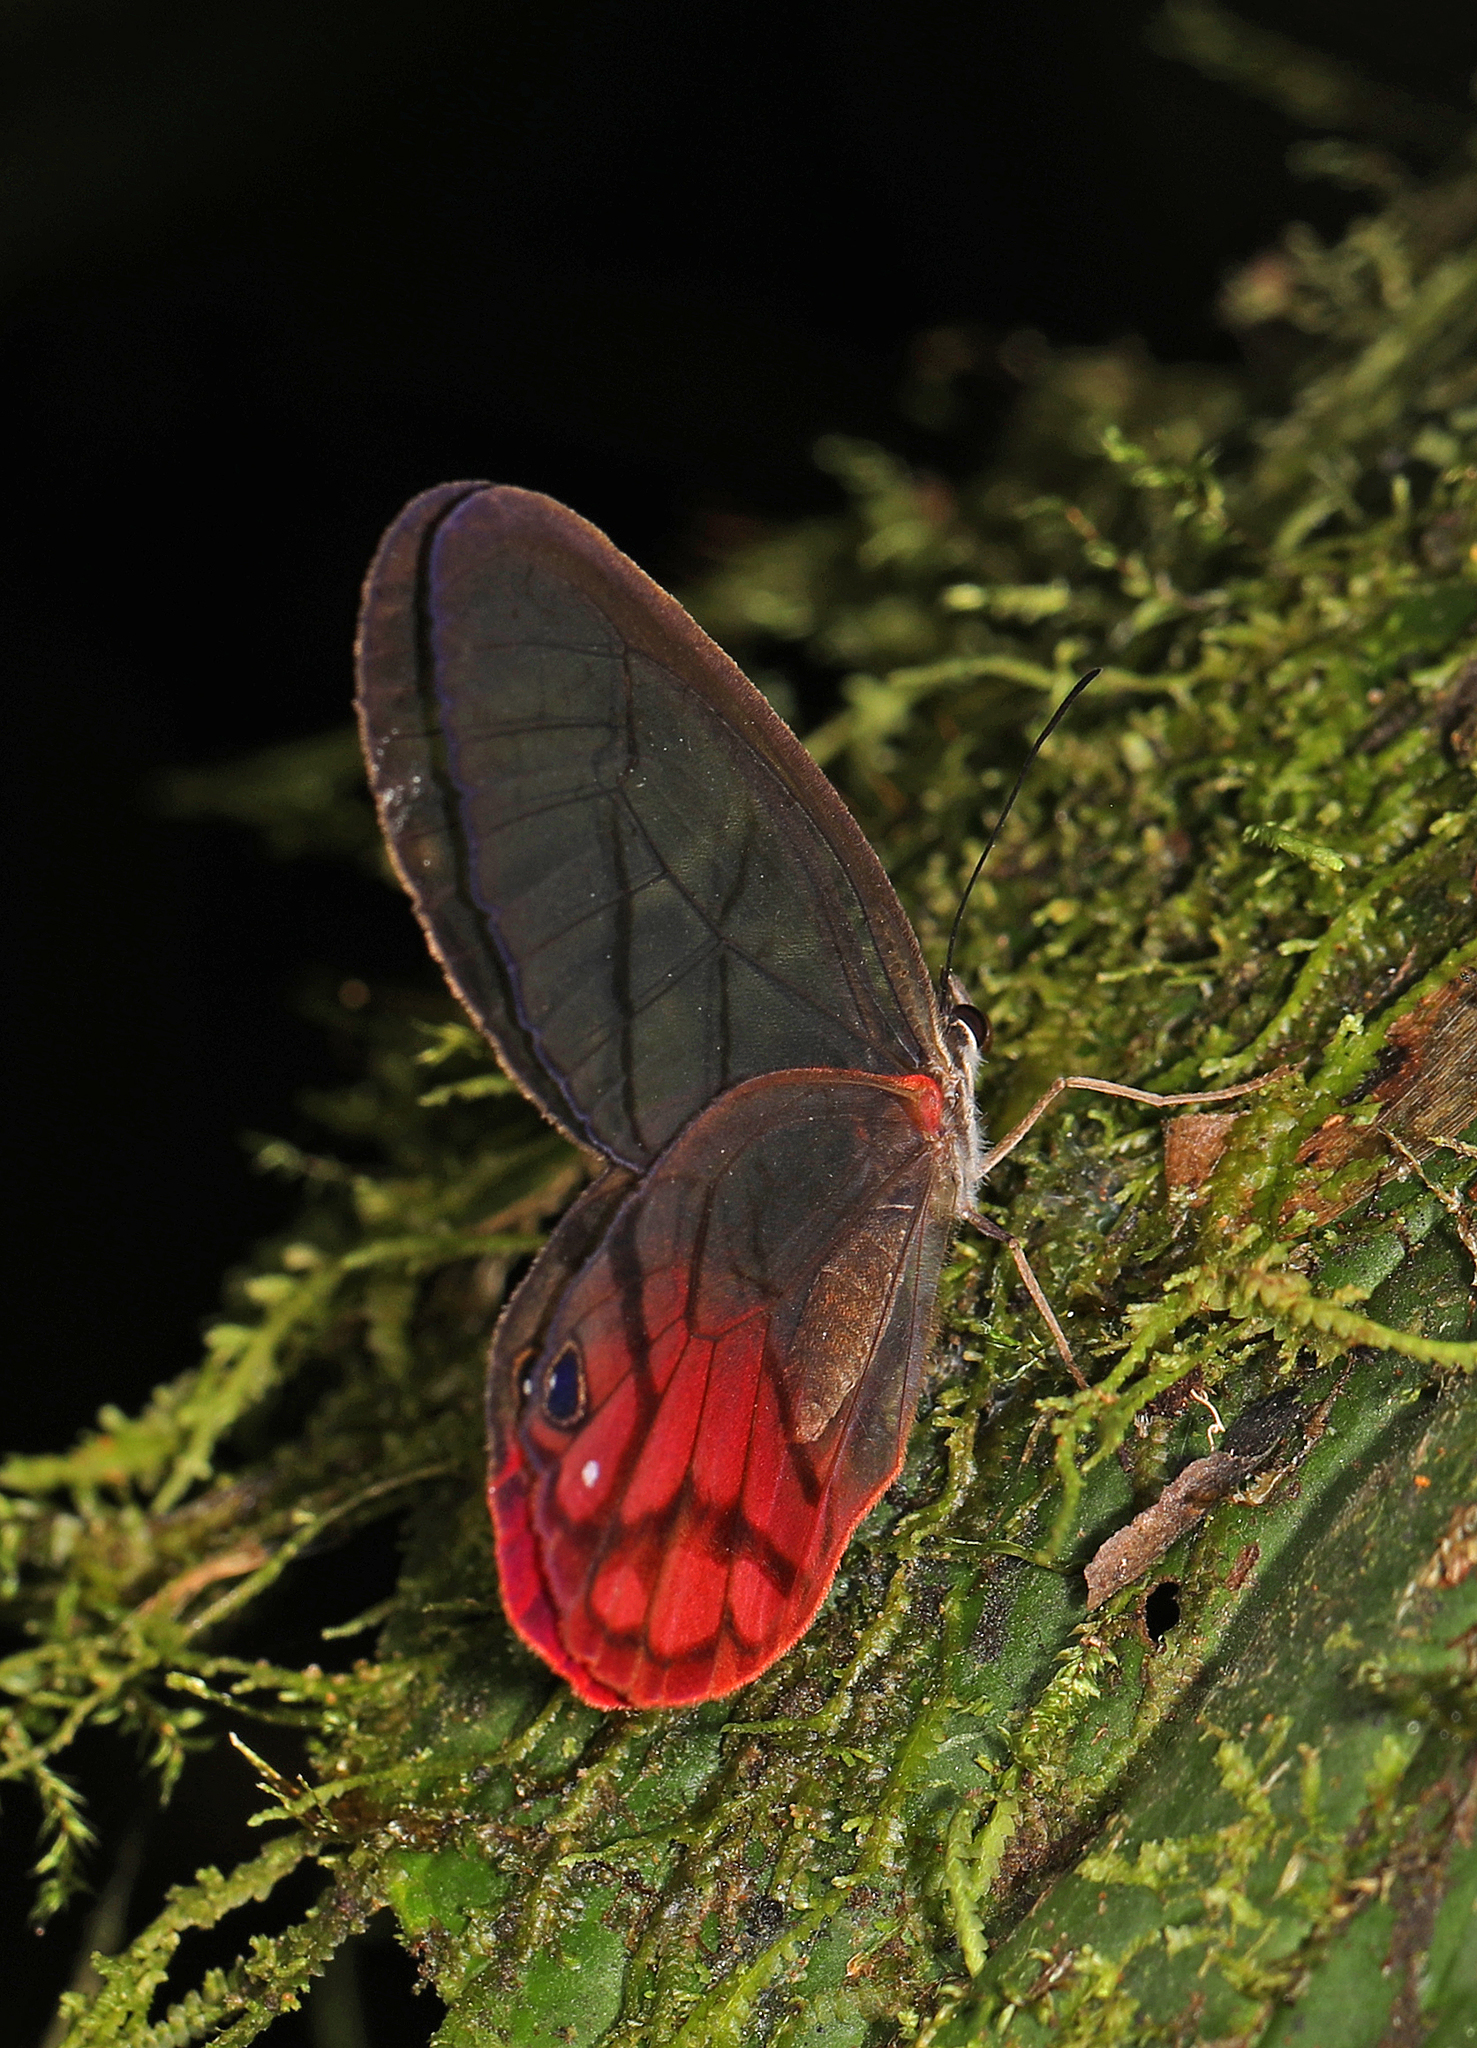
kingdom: Animalia
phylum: Arthropoda
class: Insecta
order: Lepidoptera
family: Nymphalidae
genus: Cithaerias
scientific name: Cithaerias pireta
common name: Rusted clearwing-satyr
